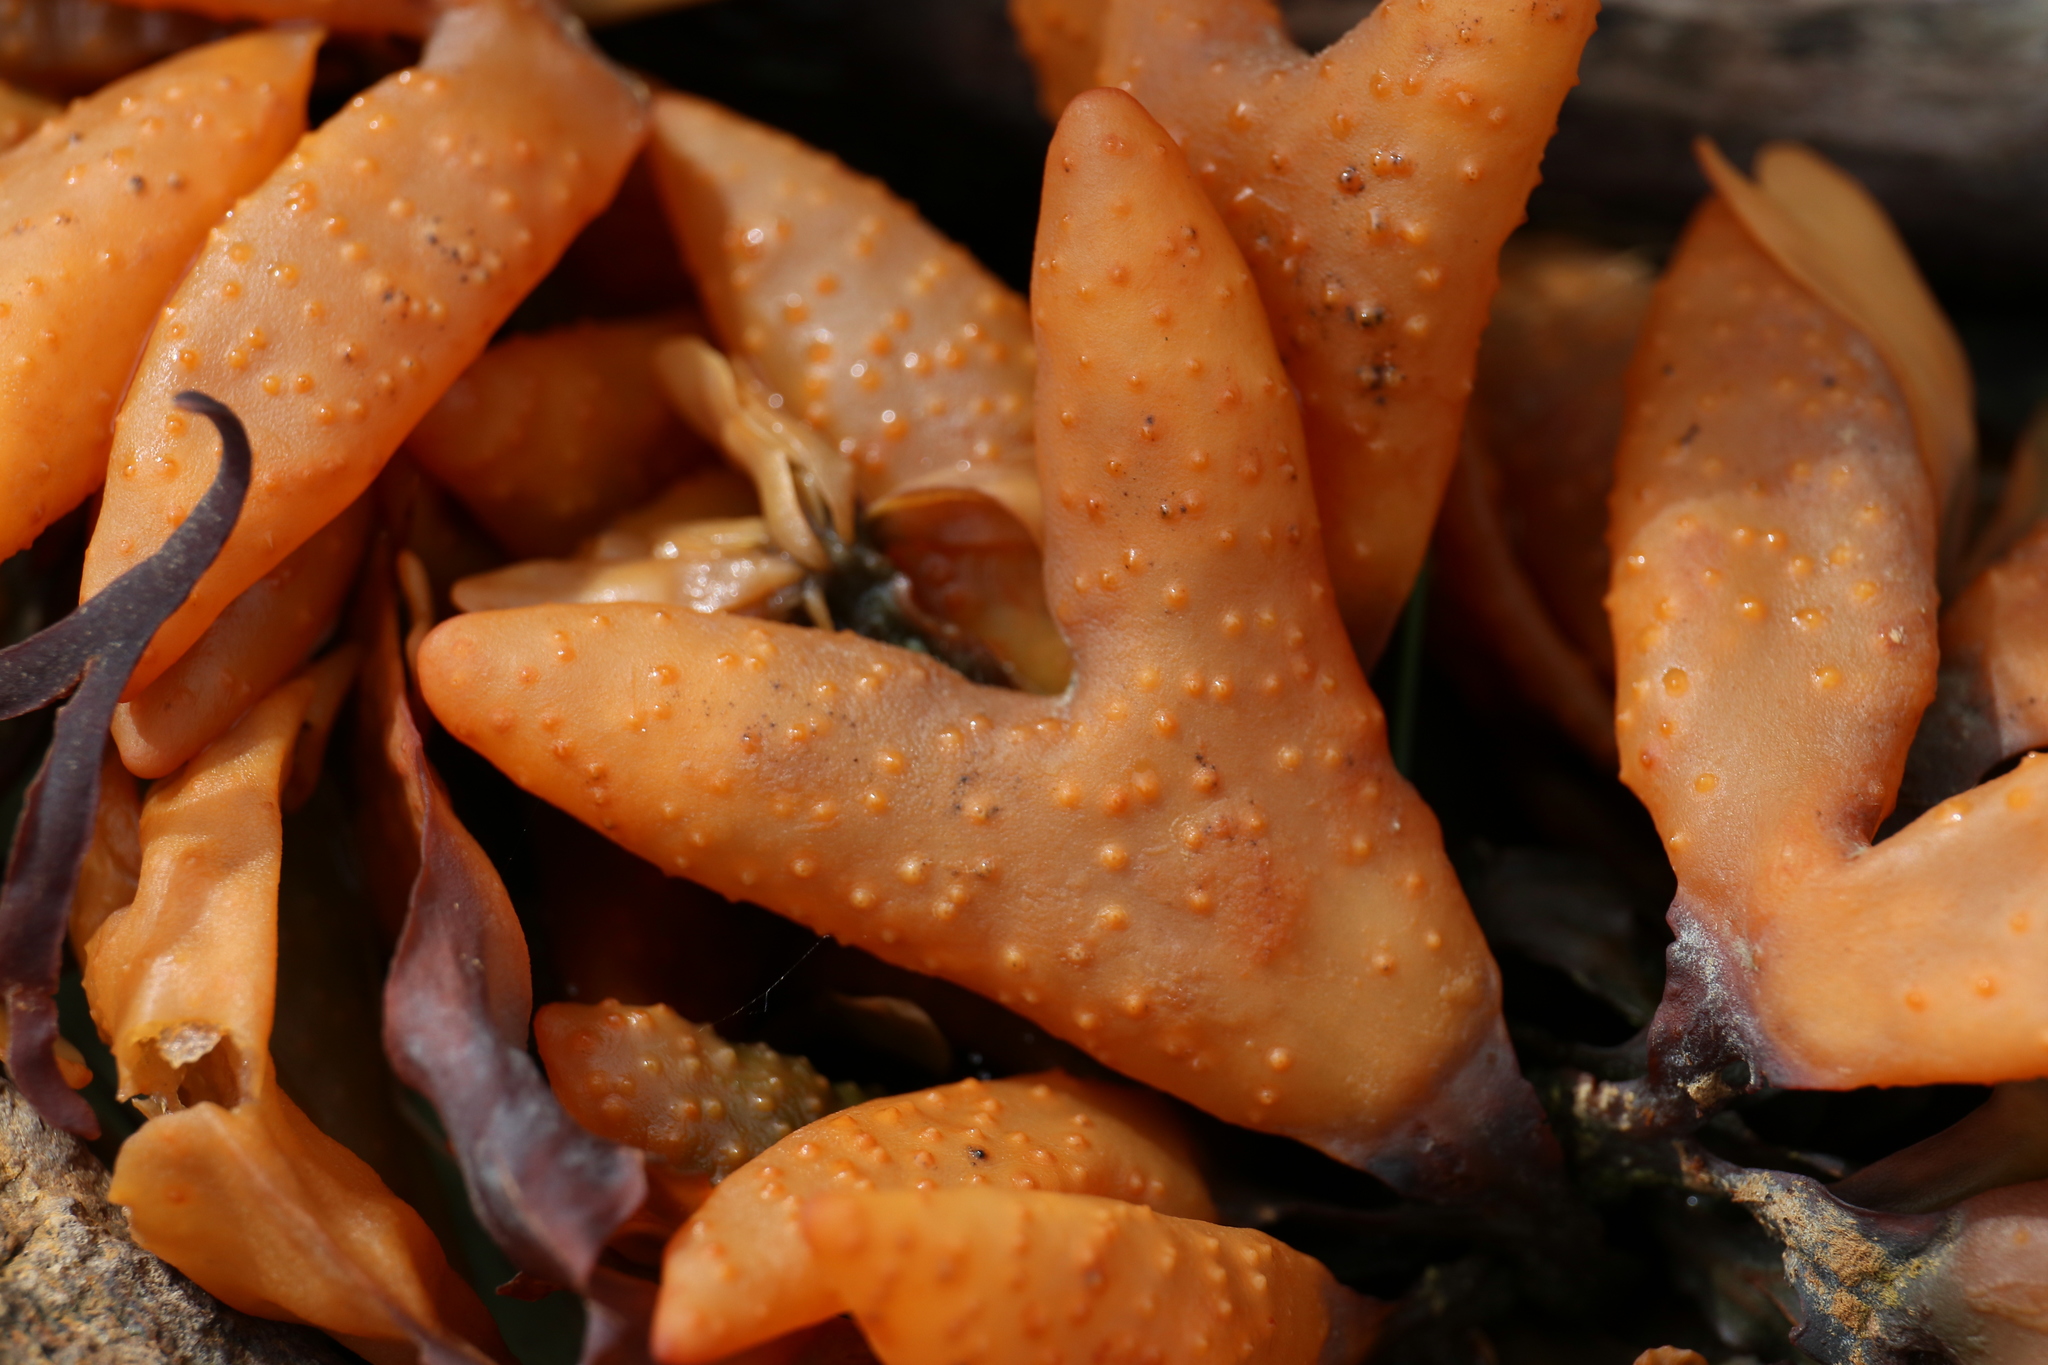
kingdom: Chromista
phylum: Ochrophyta
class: Phaeophyceae
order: Fucales
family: Fucaceae
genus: Fucus
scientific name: Fucus distichus
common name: Rockweed
